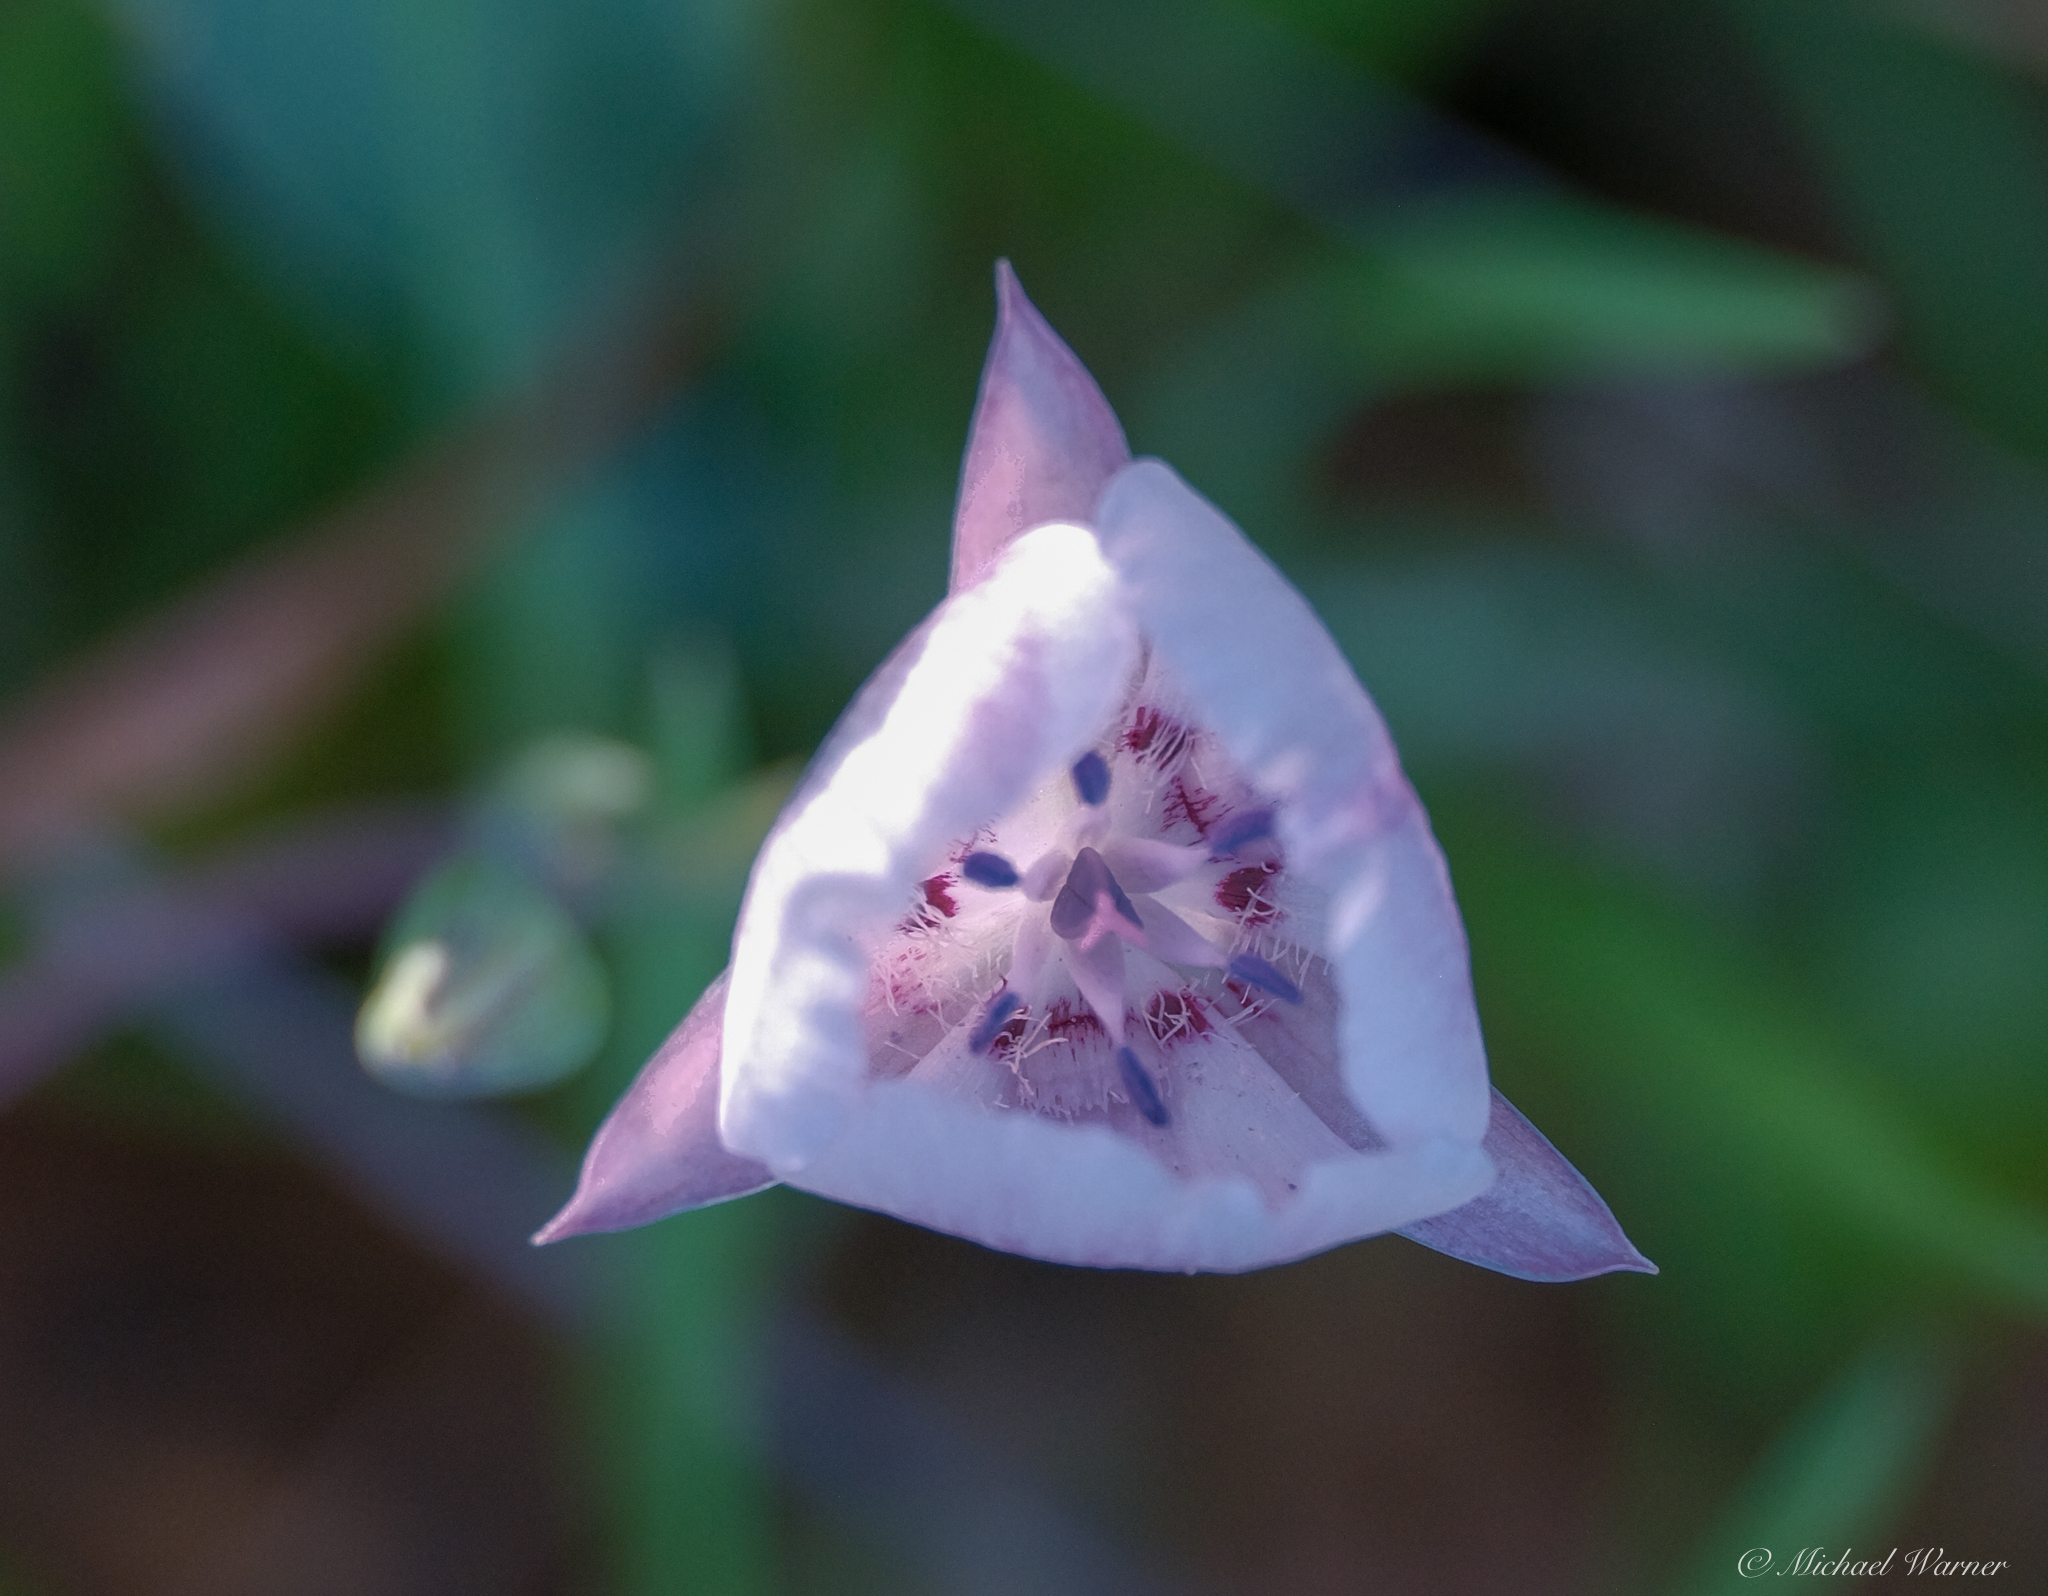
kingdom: Plantae
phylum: Tracheophyta
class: Liliopsida
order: Liliales
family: Liliaceae
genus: Calochortus
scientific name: Calochortus umbellatus
